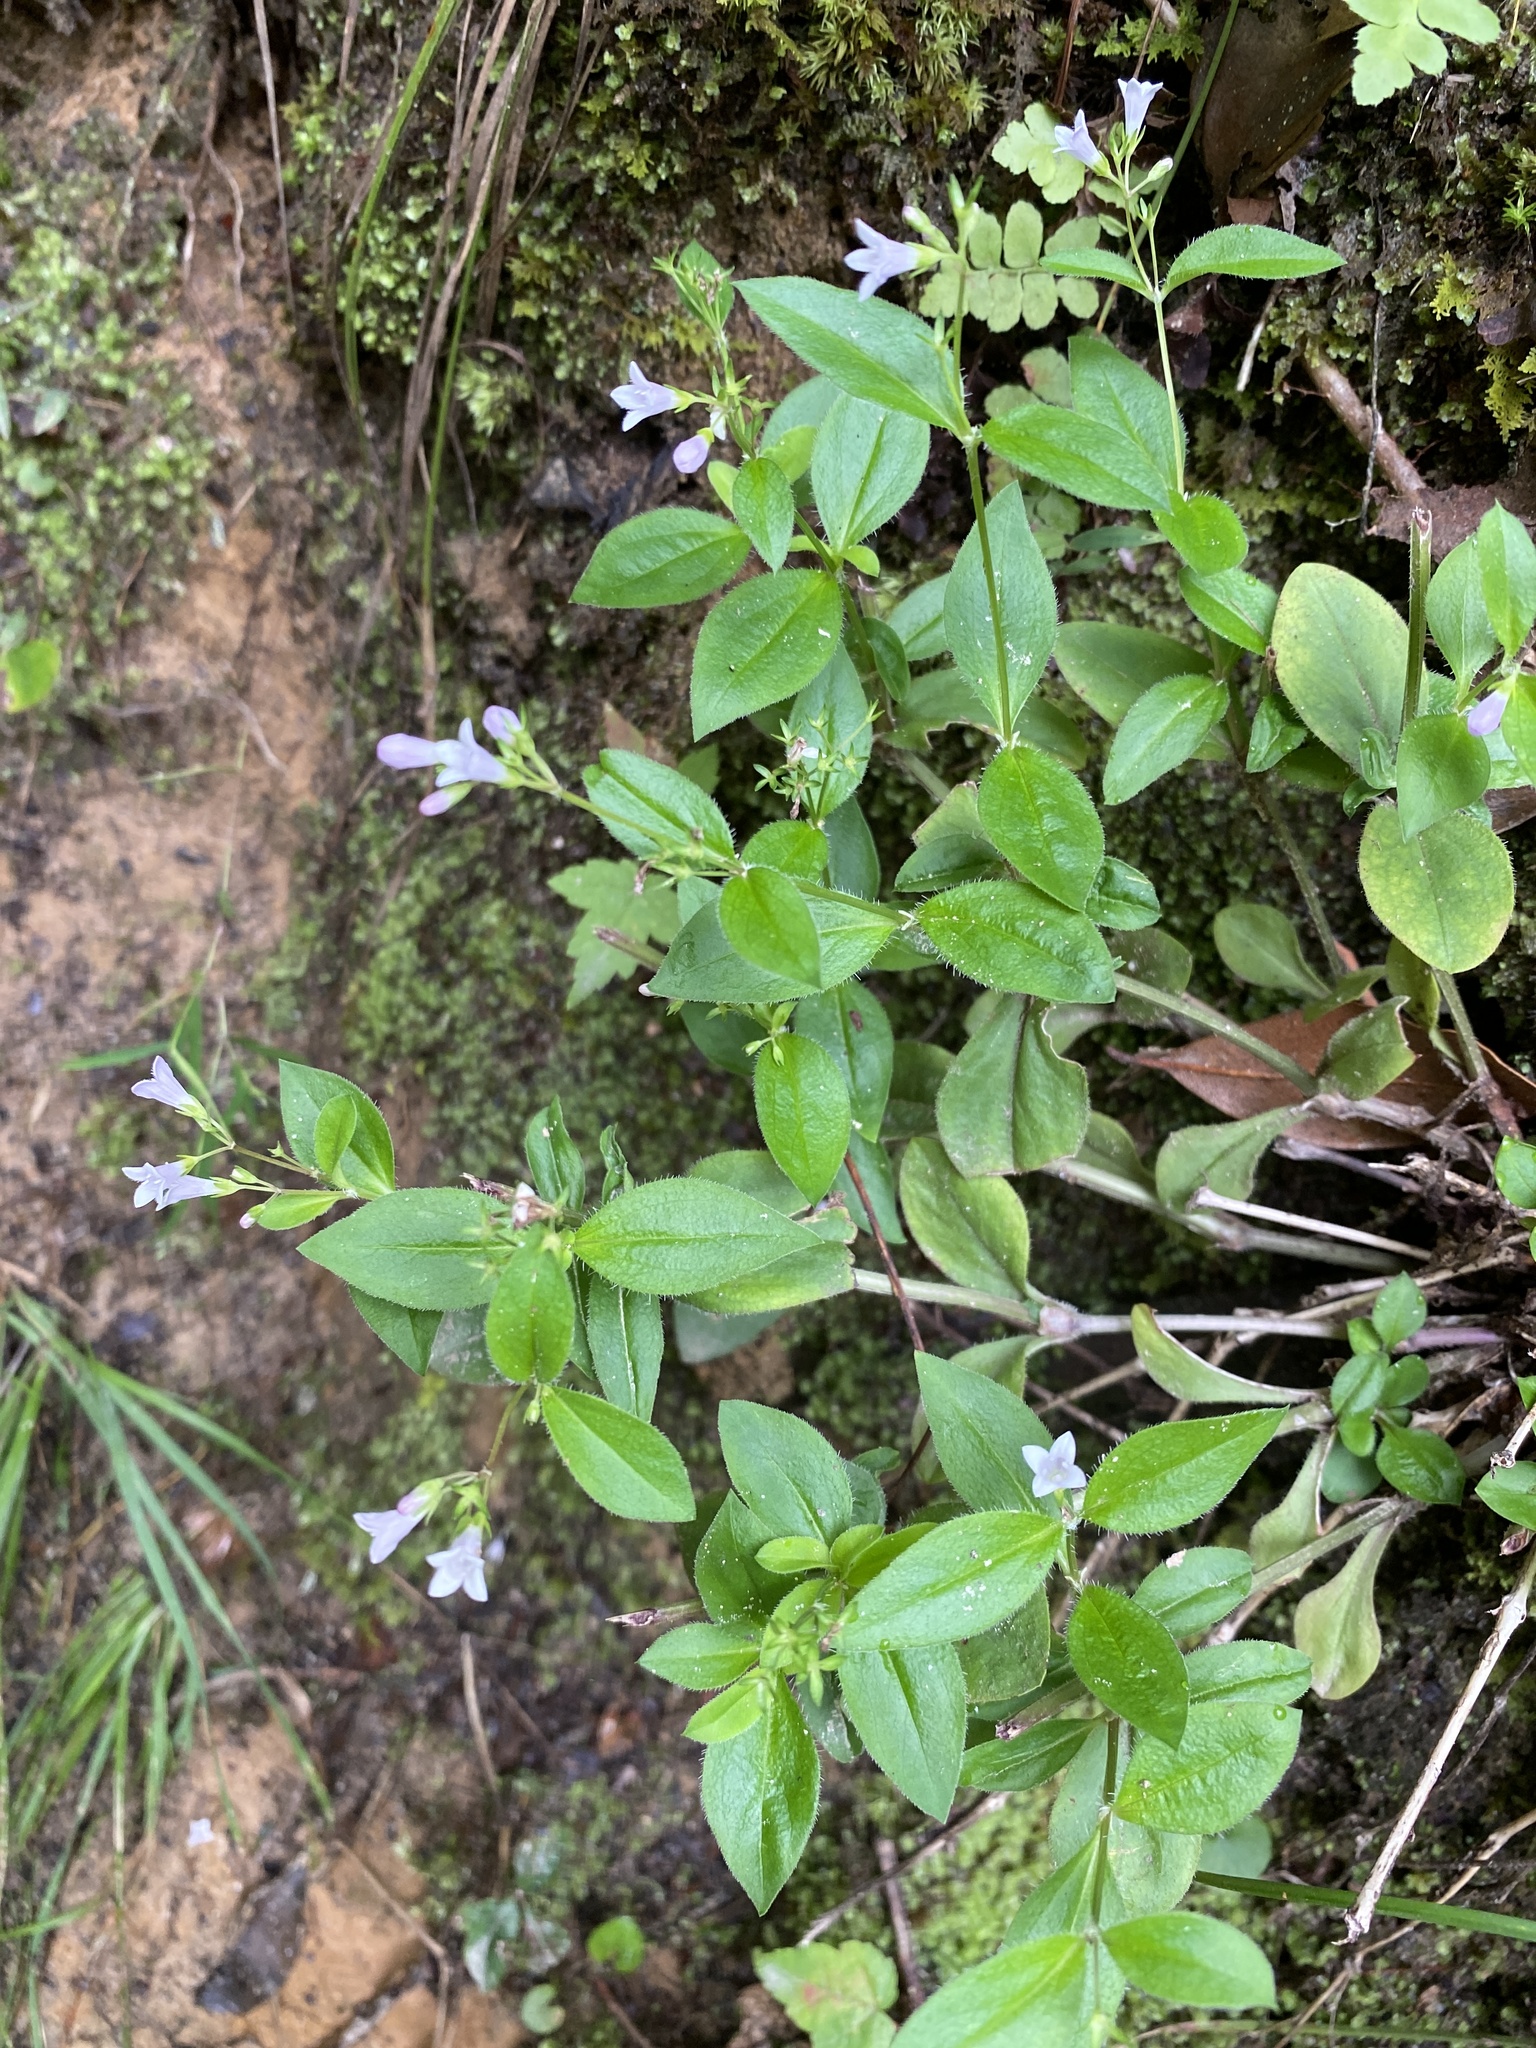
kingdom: Plantae
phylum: Tracheophyta
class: Magnoliopsida
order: Gentianales
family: Rubiaceae
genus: Houstonia
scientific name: Houstonia purpurea
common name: Summer bluet
